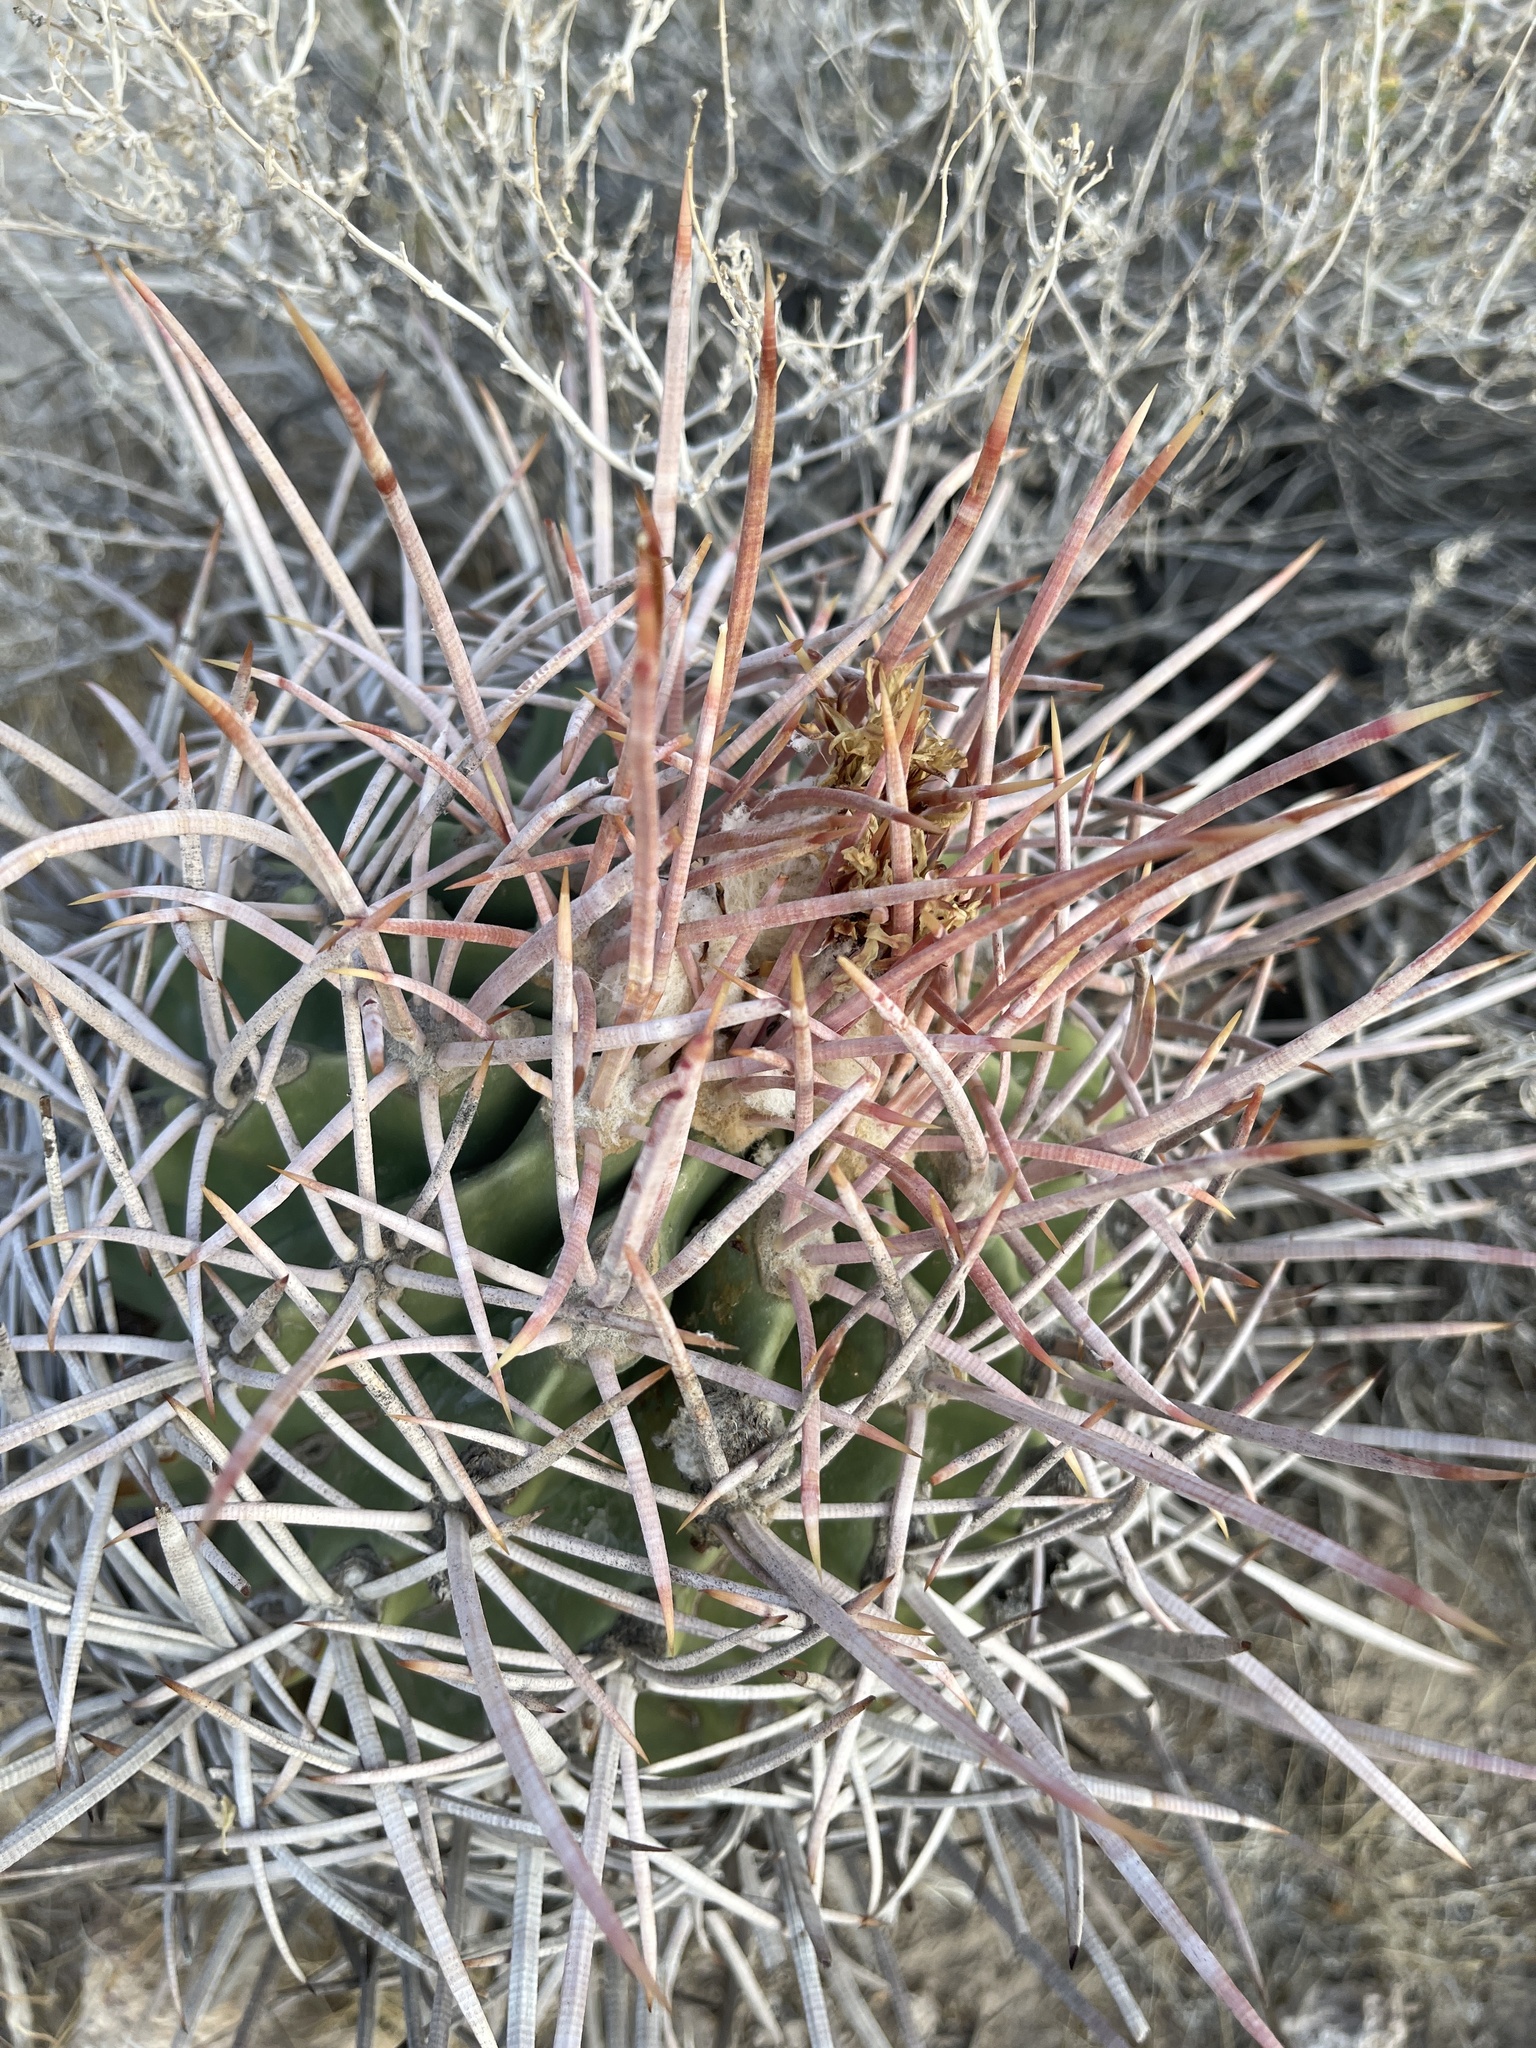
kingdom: Plantae
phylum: Tracheophyta
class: Magnoliopsida
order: Caryophyllales
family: Cactaceae
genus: Echinocactus
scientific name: Echinocactus polycephalus
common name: Cottontop cactus
